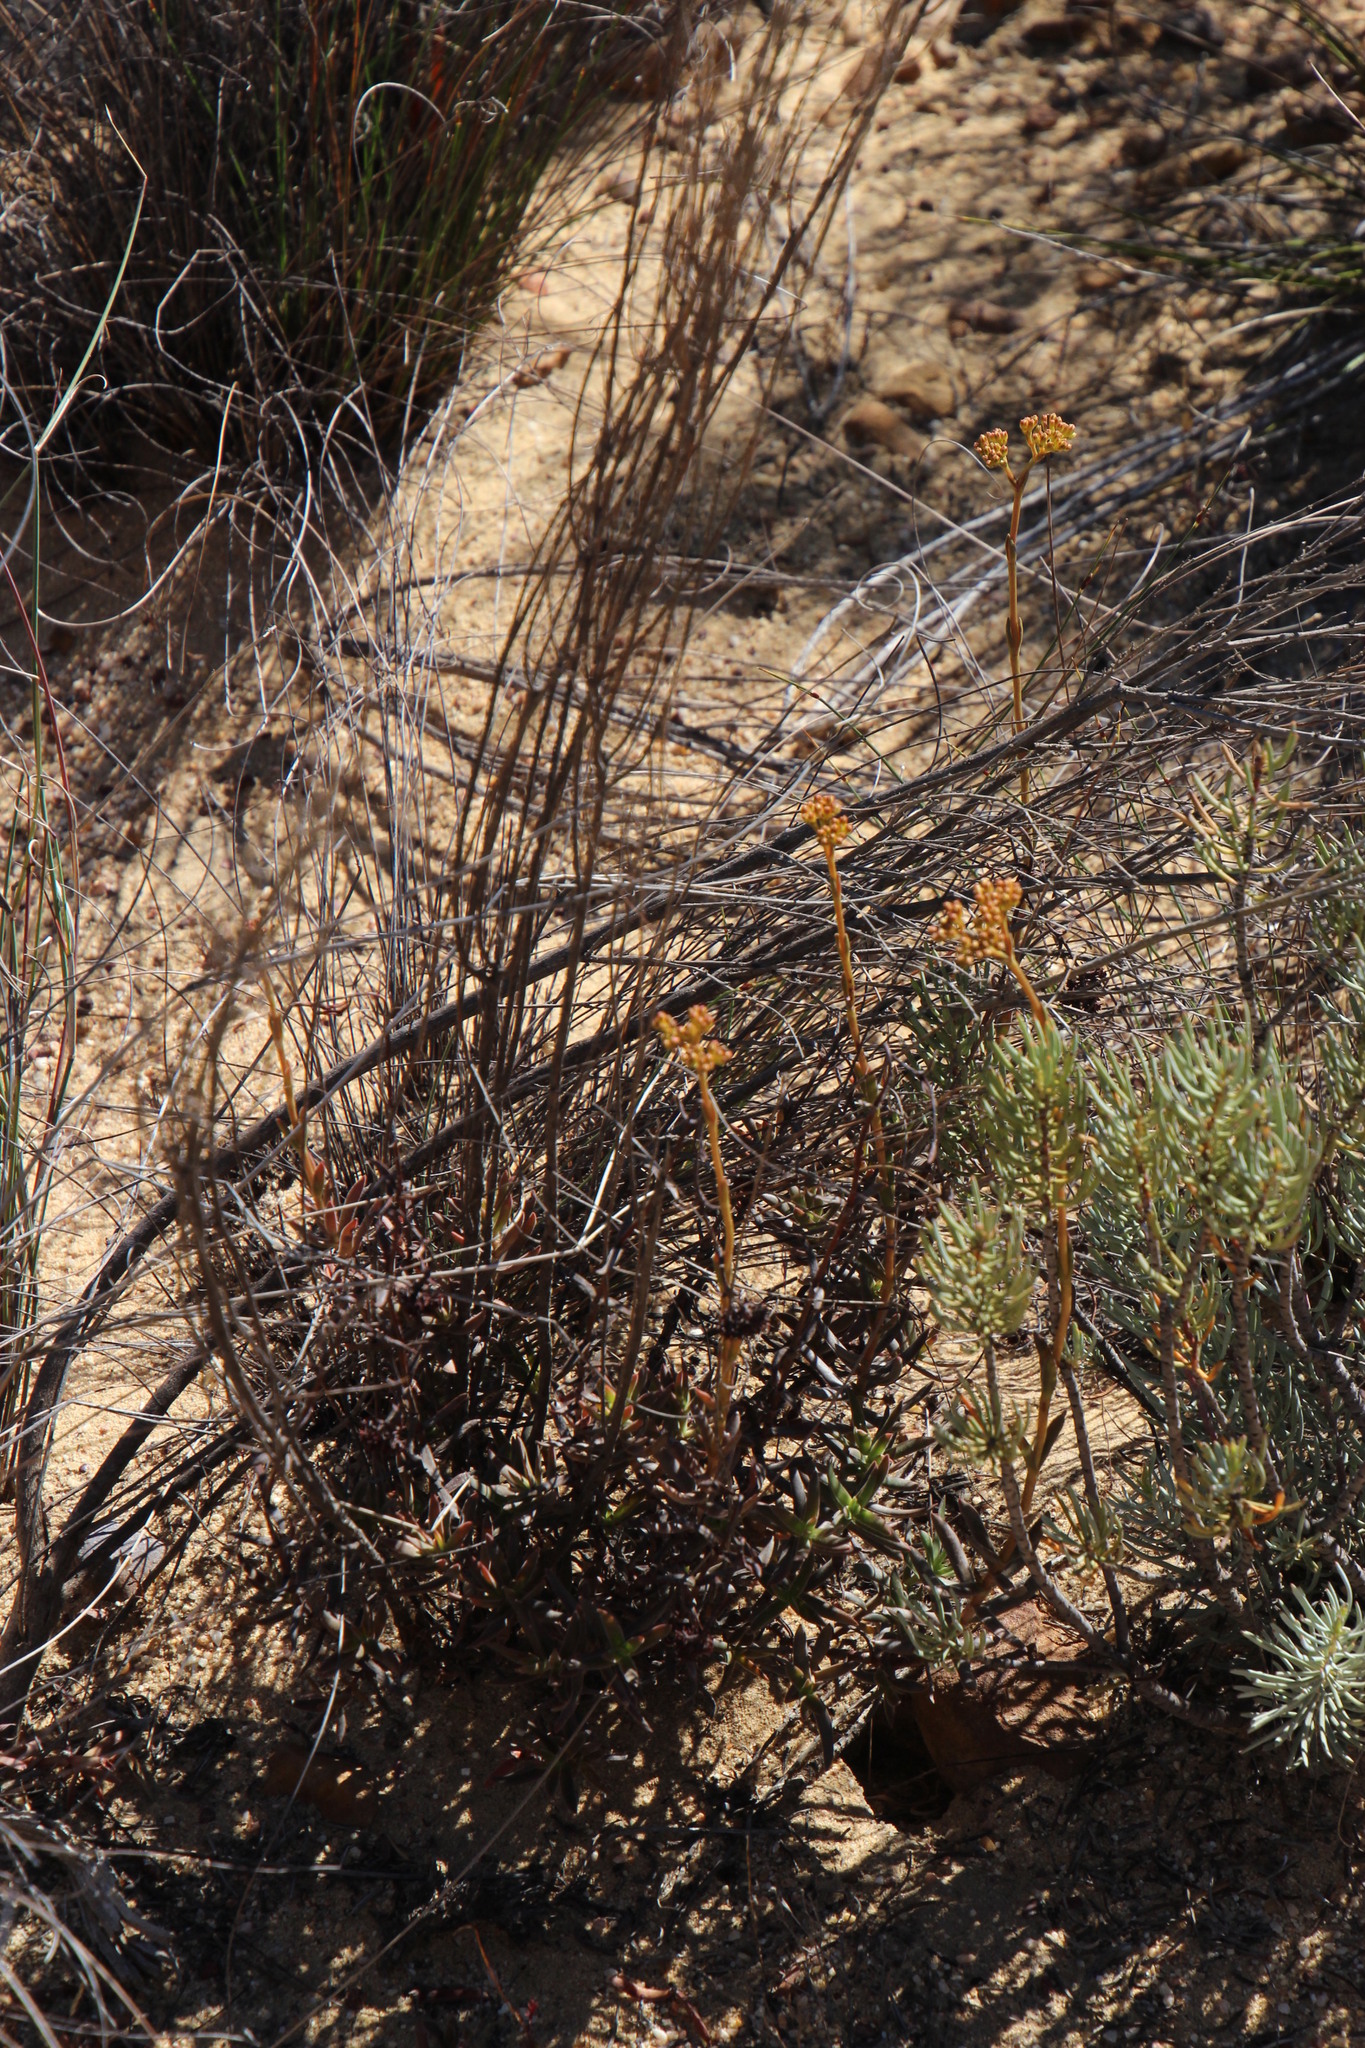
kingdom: Plantae
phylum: Tracheophyta
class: Magnoliopsida
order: Saxifragales
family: Crassulaceae
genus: Crassula
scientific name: Crassula cymosa
